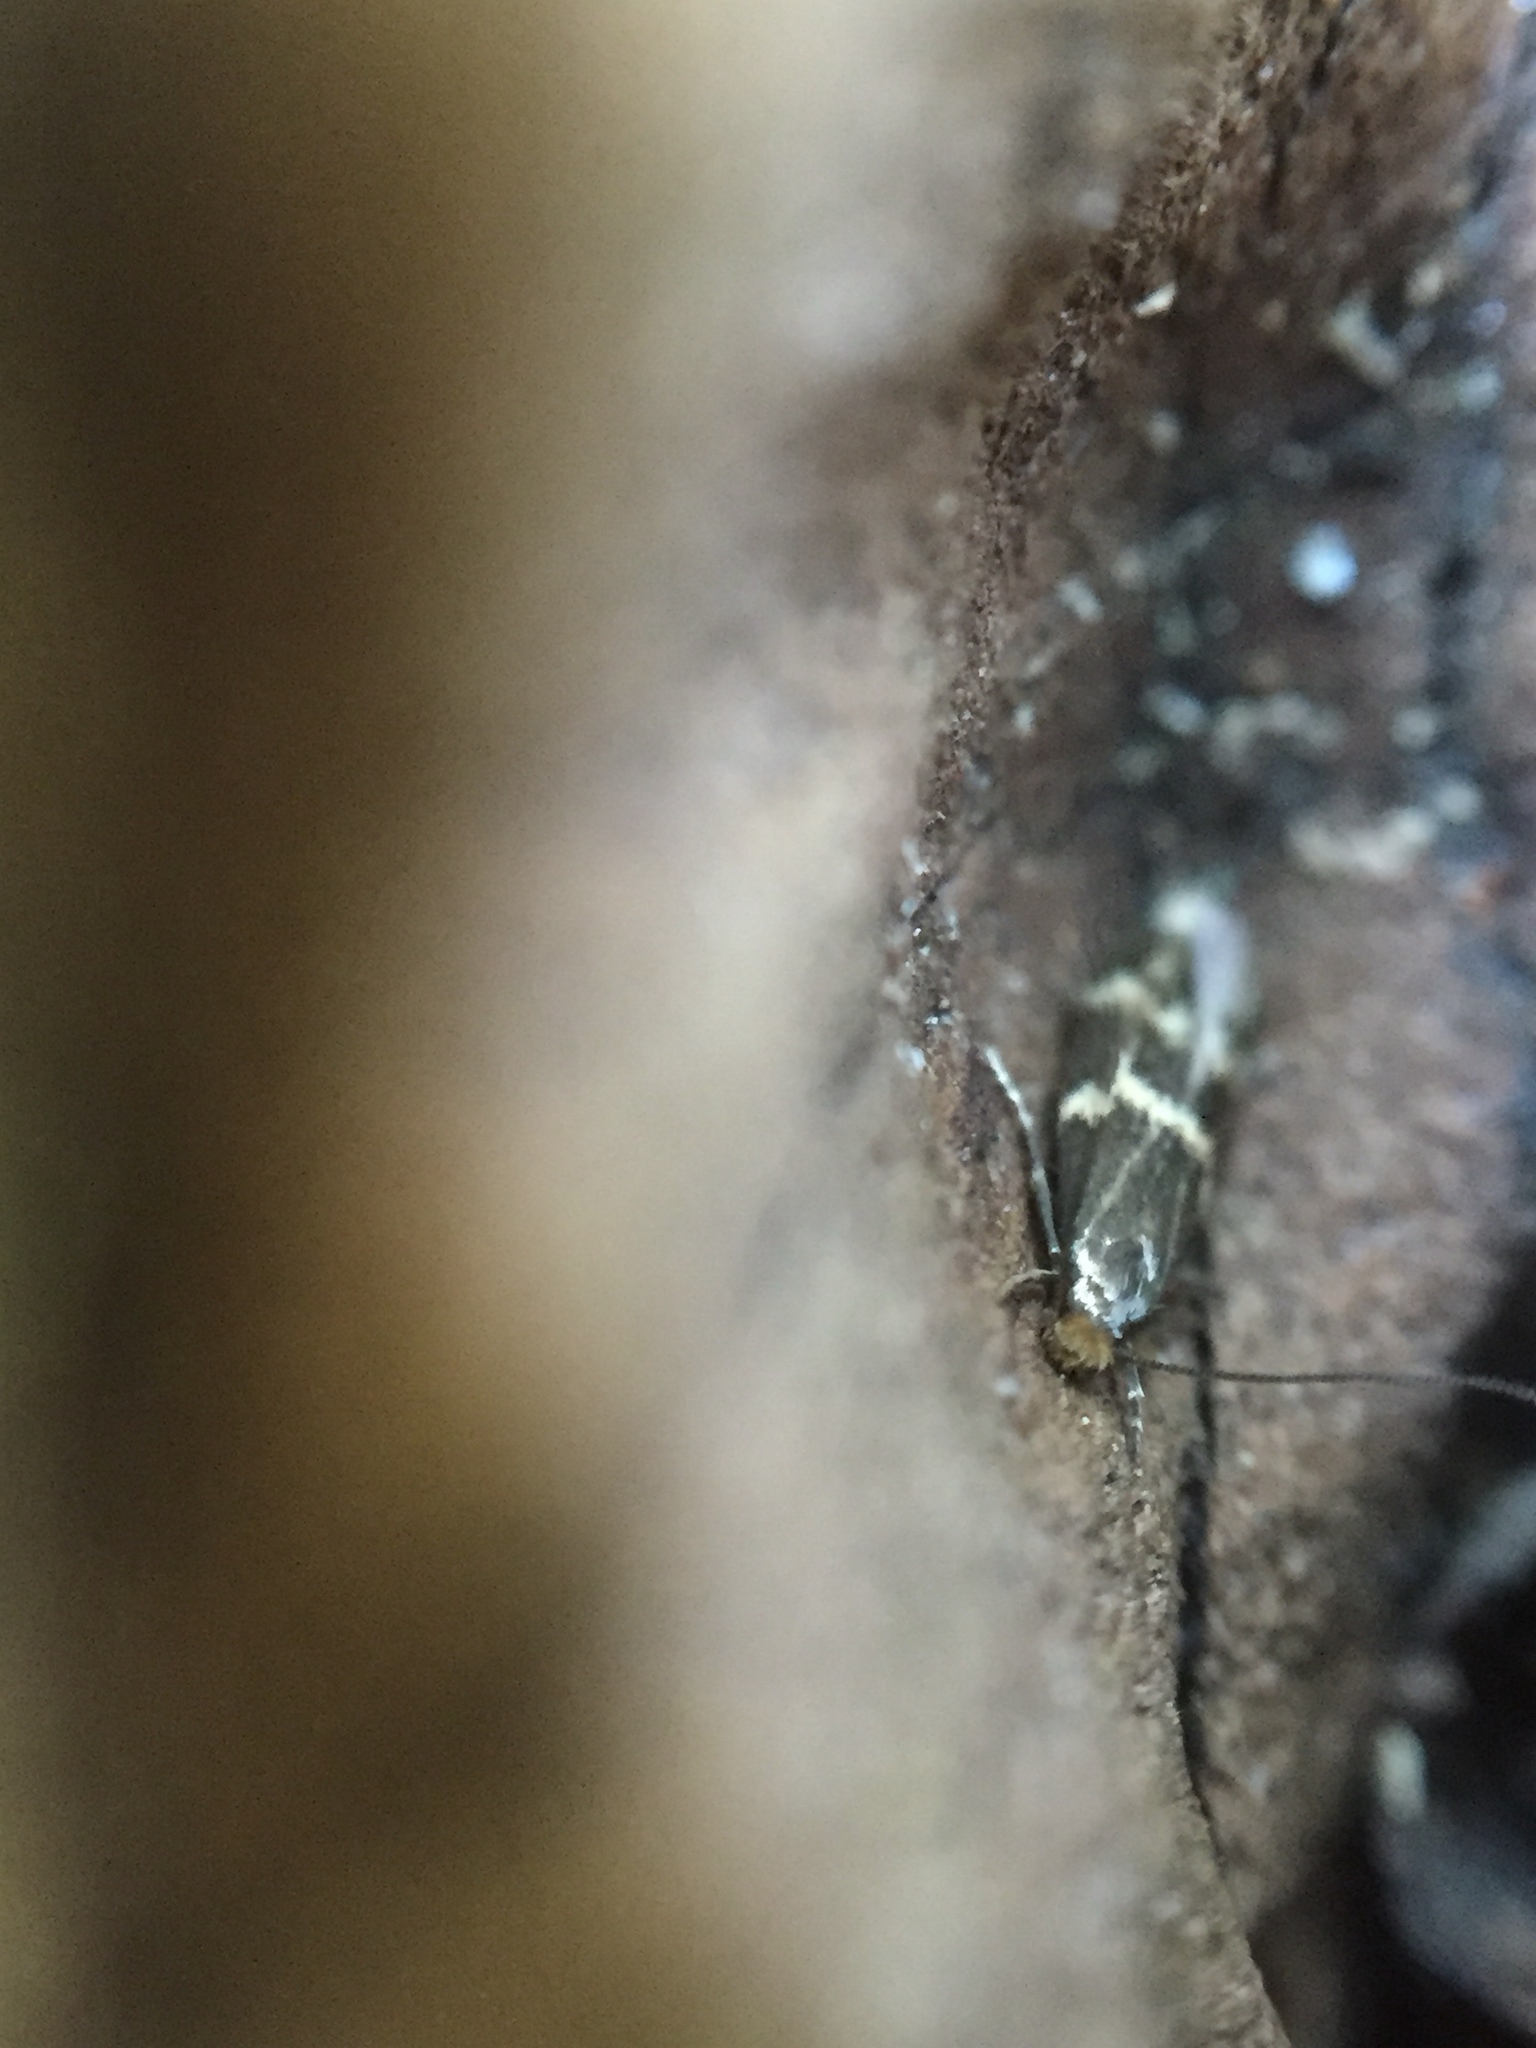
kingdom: Animalia
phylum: Arthropoda
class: Insecta
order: Lepidoptera
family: Tineidae
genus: Oinophila
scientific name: Oinophila v-flava
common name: Yellow v moth
